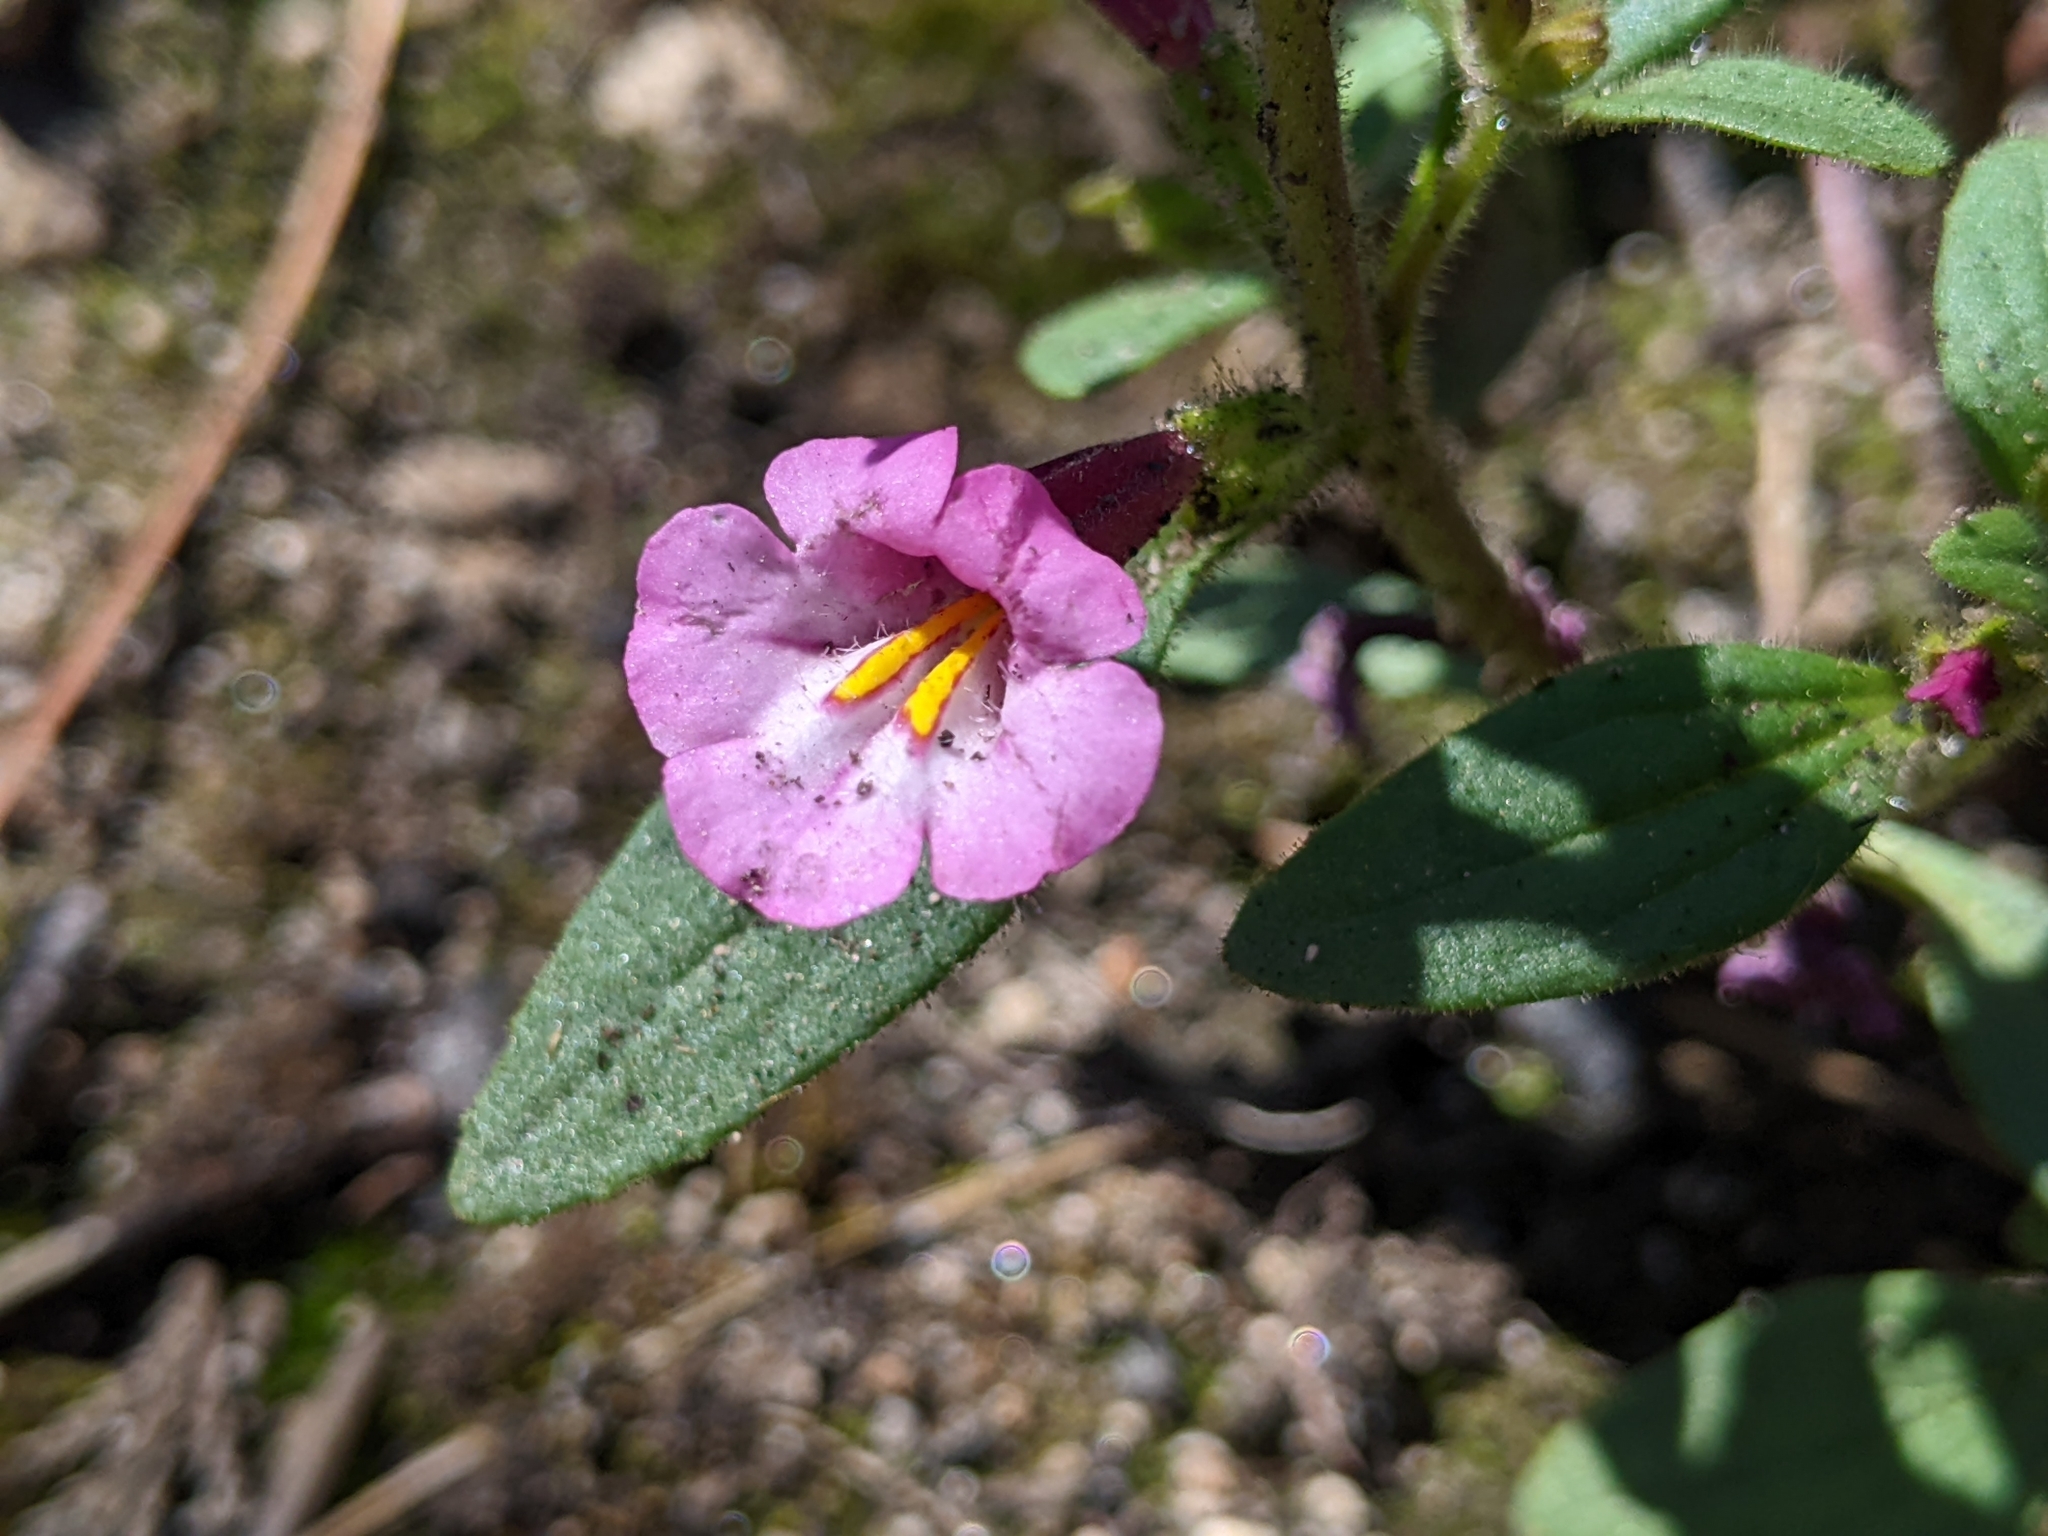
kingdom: Plantae
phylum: Tracheophyta
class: Magnoliopsida
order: Lamiales
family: Phrymaceae
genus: Diplacus
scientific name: Diplacus torreyi
